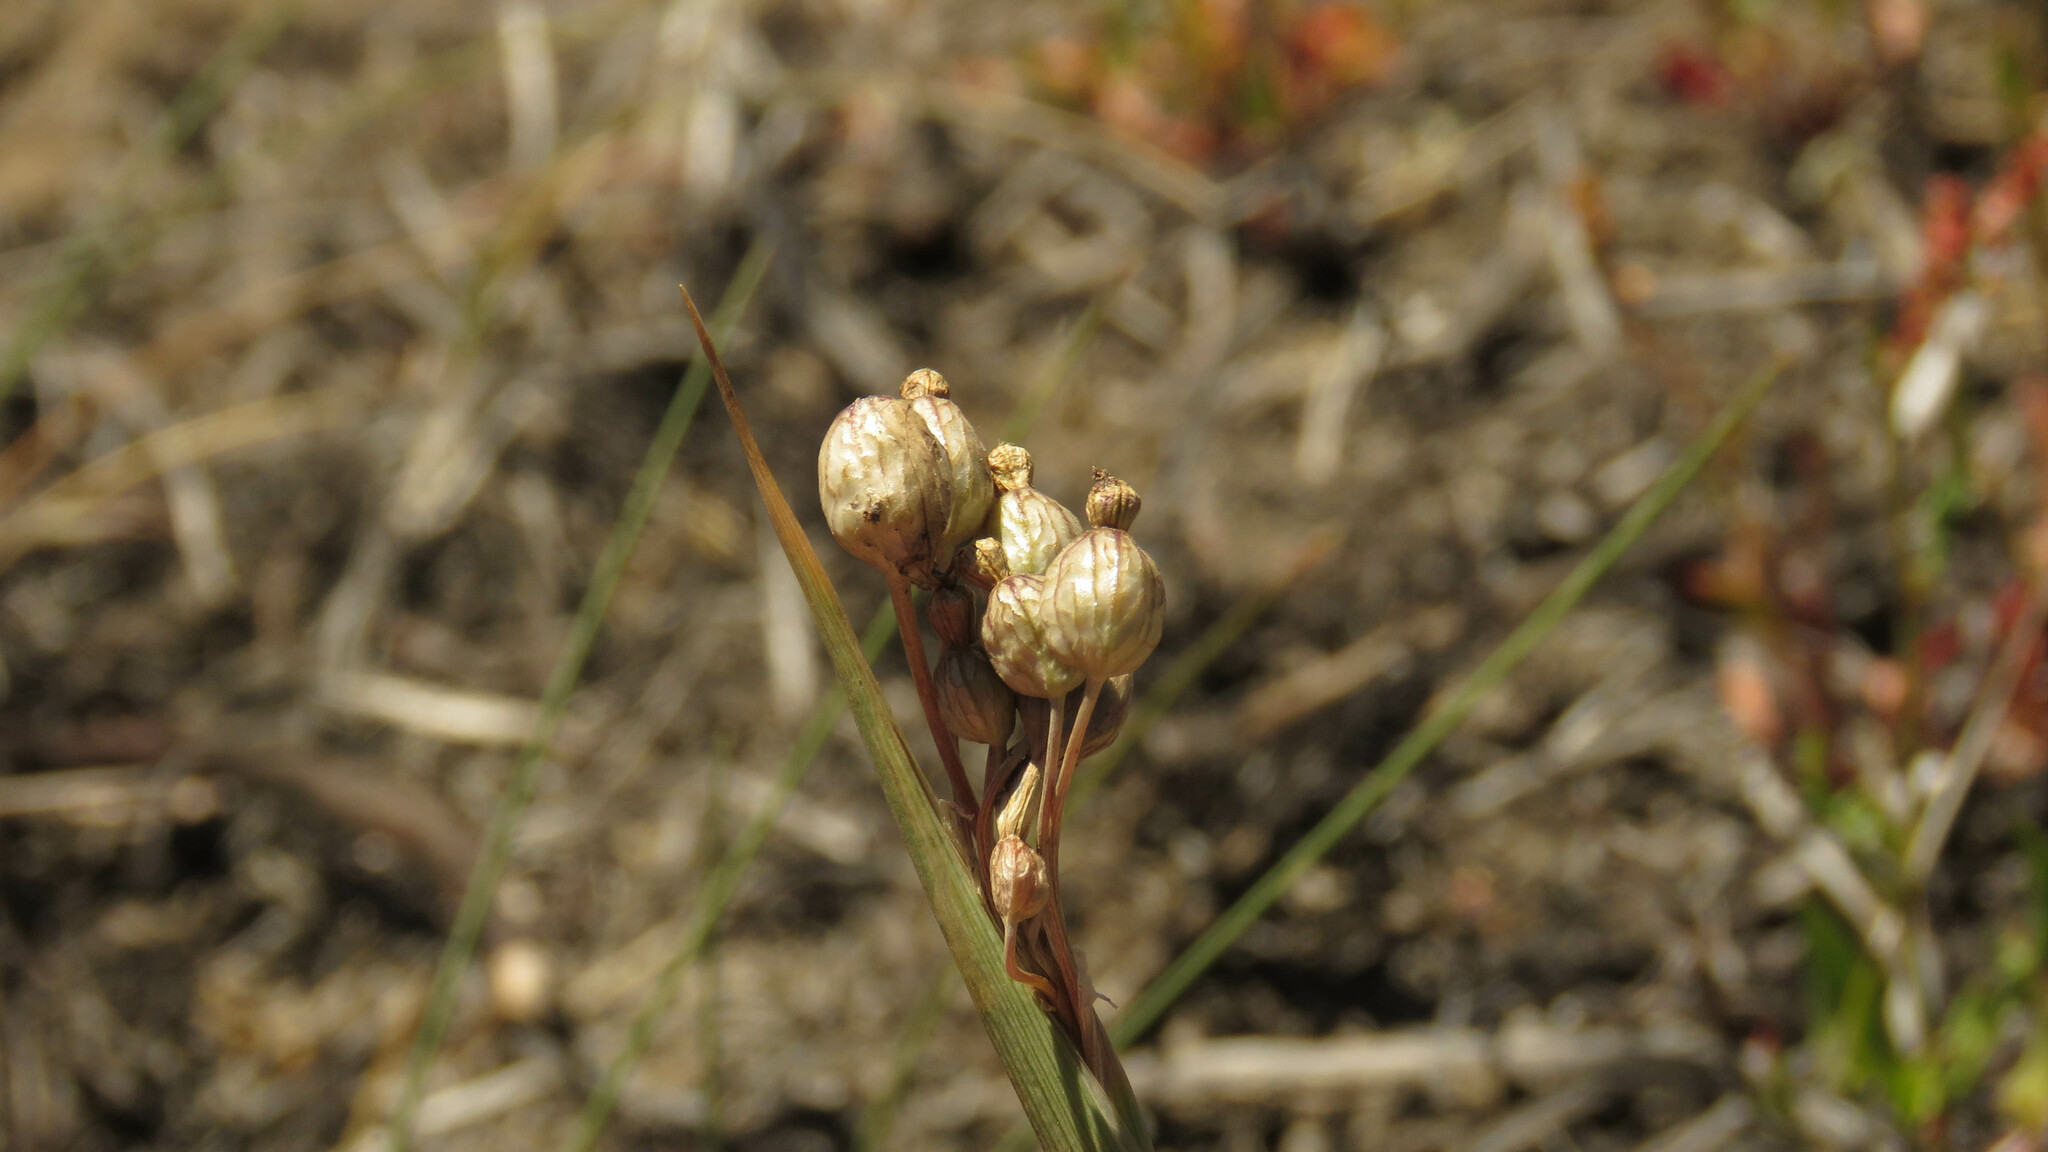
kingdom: Plantae
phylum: Tracheophyta
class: Liliopsida
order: Asparagales
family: Iridaceae
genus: Olsynium
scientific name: Olsynium junceum
